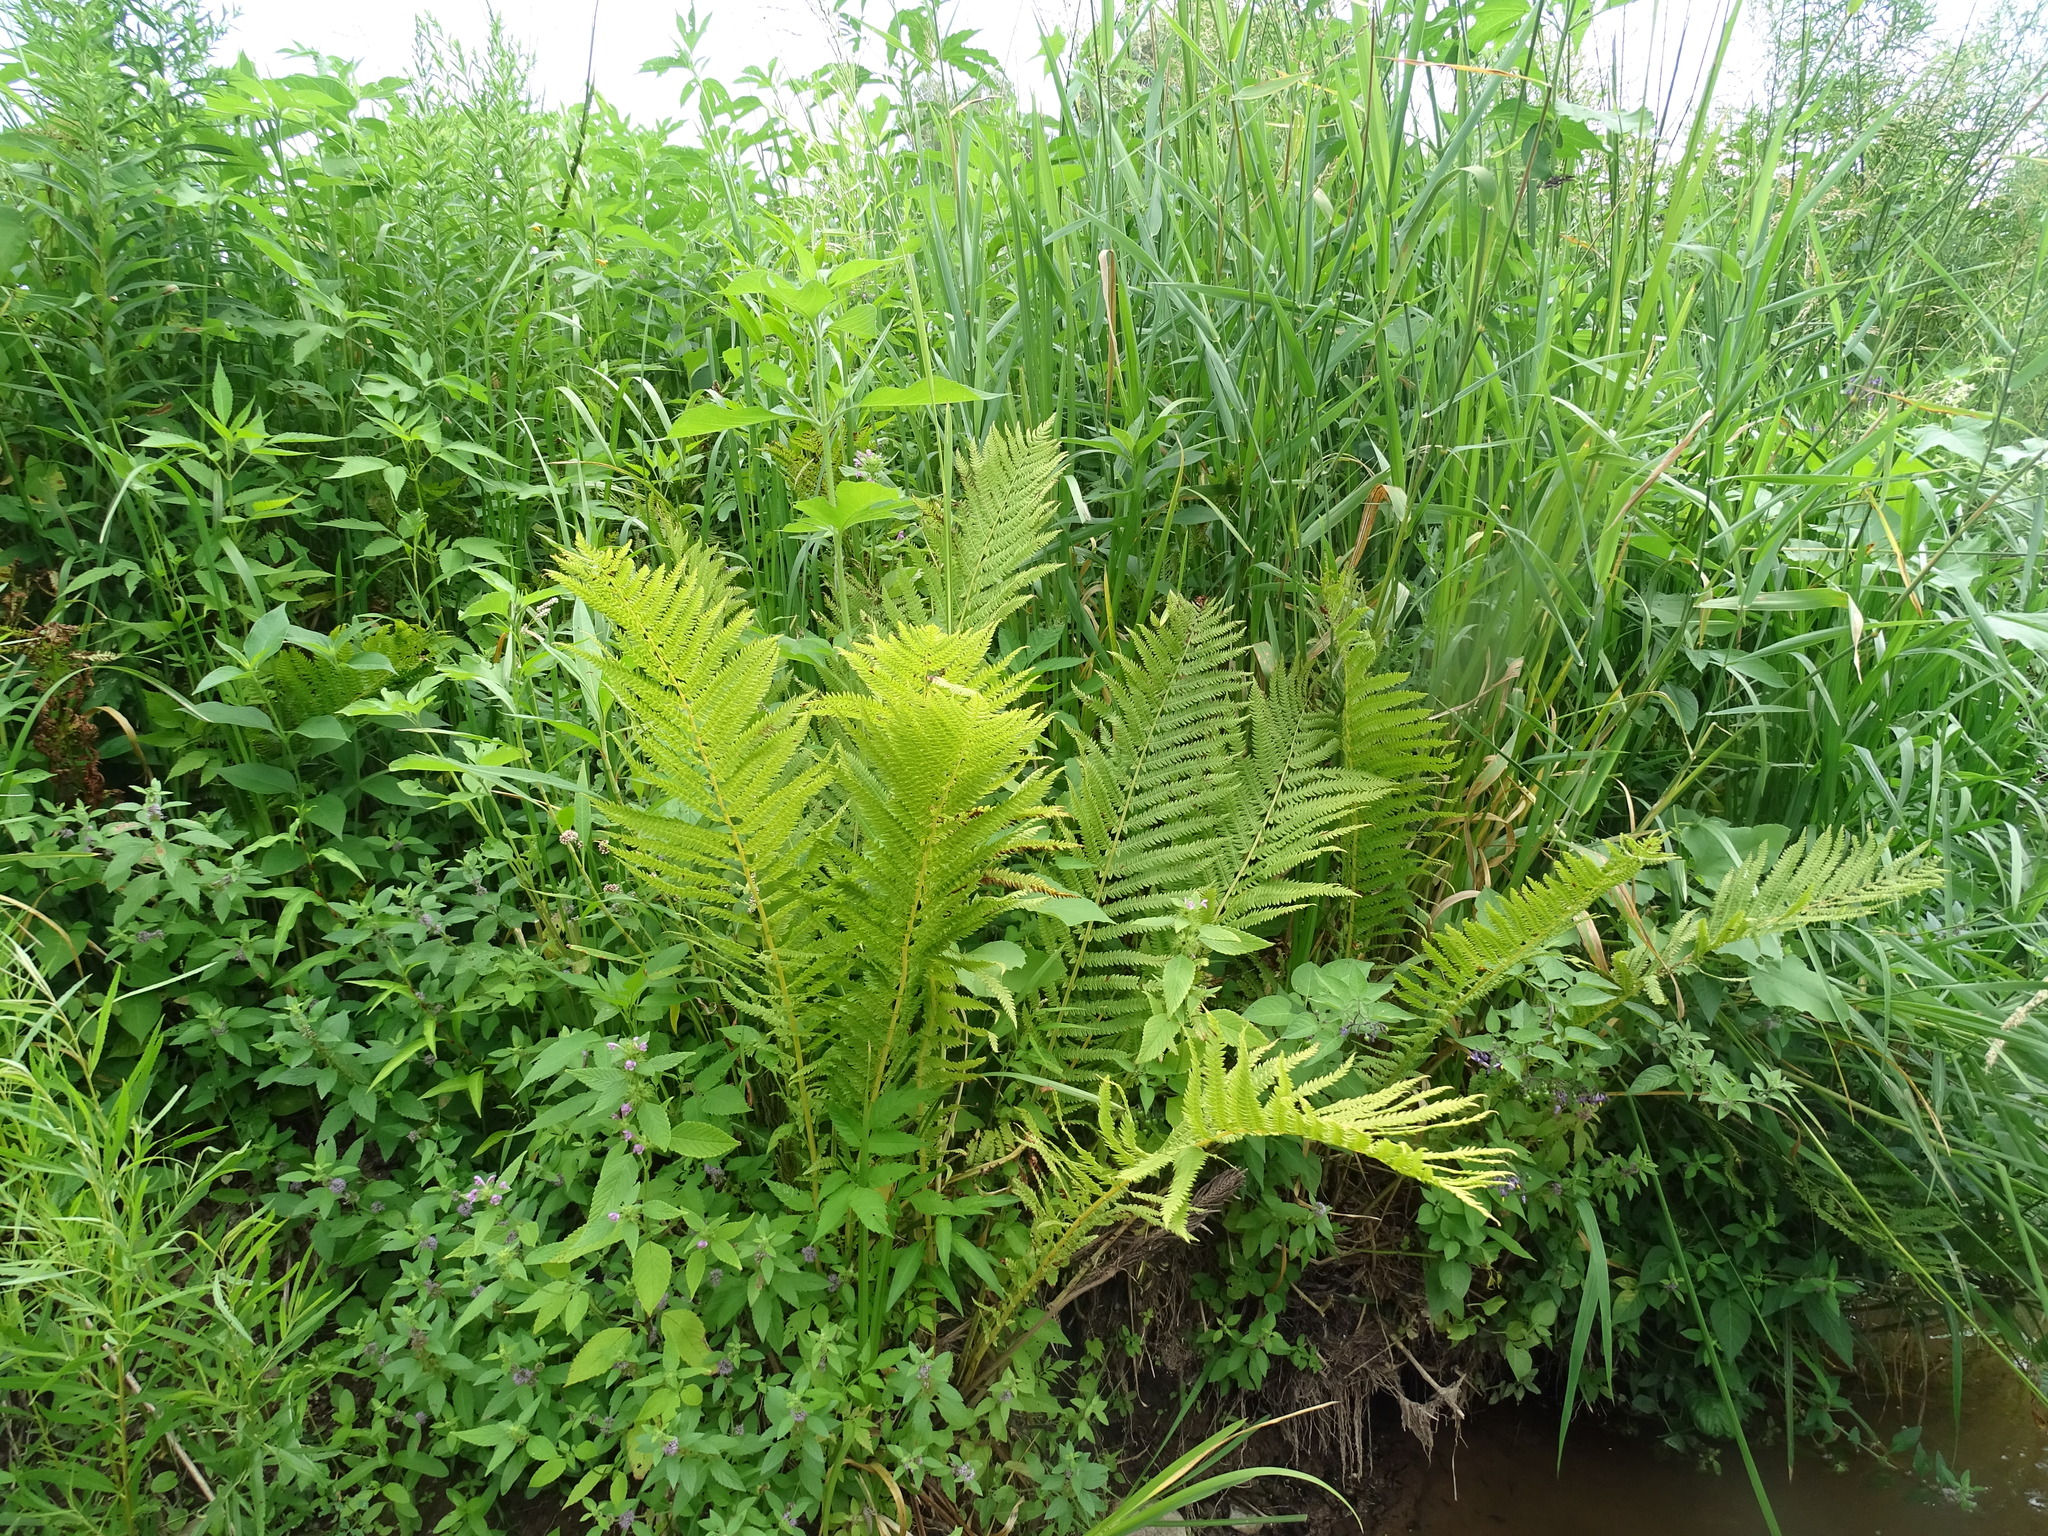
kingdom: Plantae
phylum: Tracheophyta
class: Polypodiopsida
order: Polypodiales
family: Onocleaceae
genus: Matteuccia
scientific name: Matteuccia struthiopteris
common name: Ostrich fern
